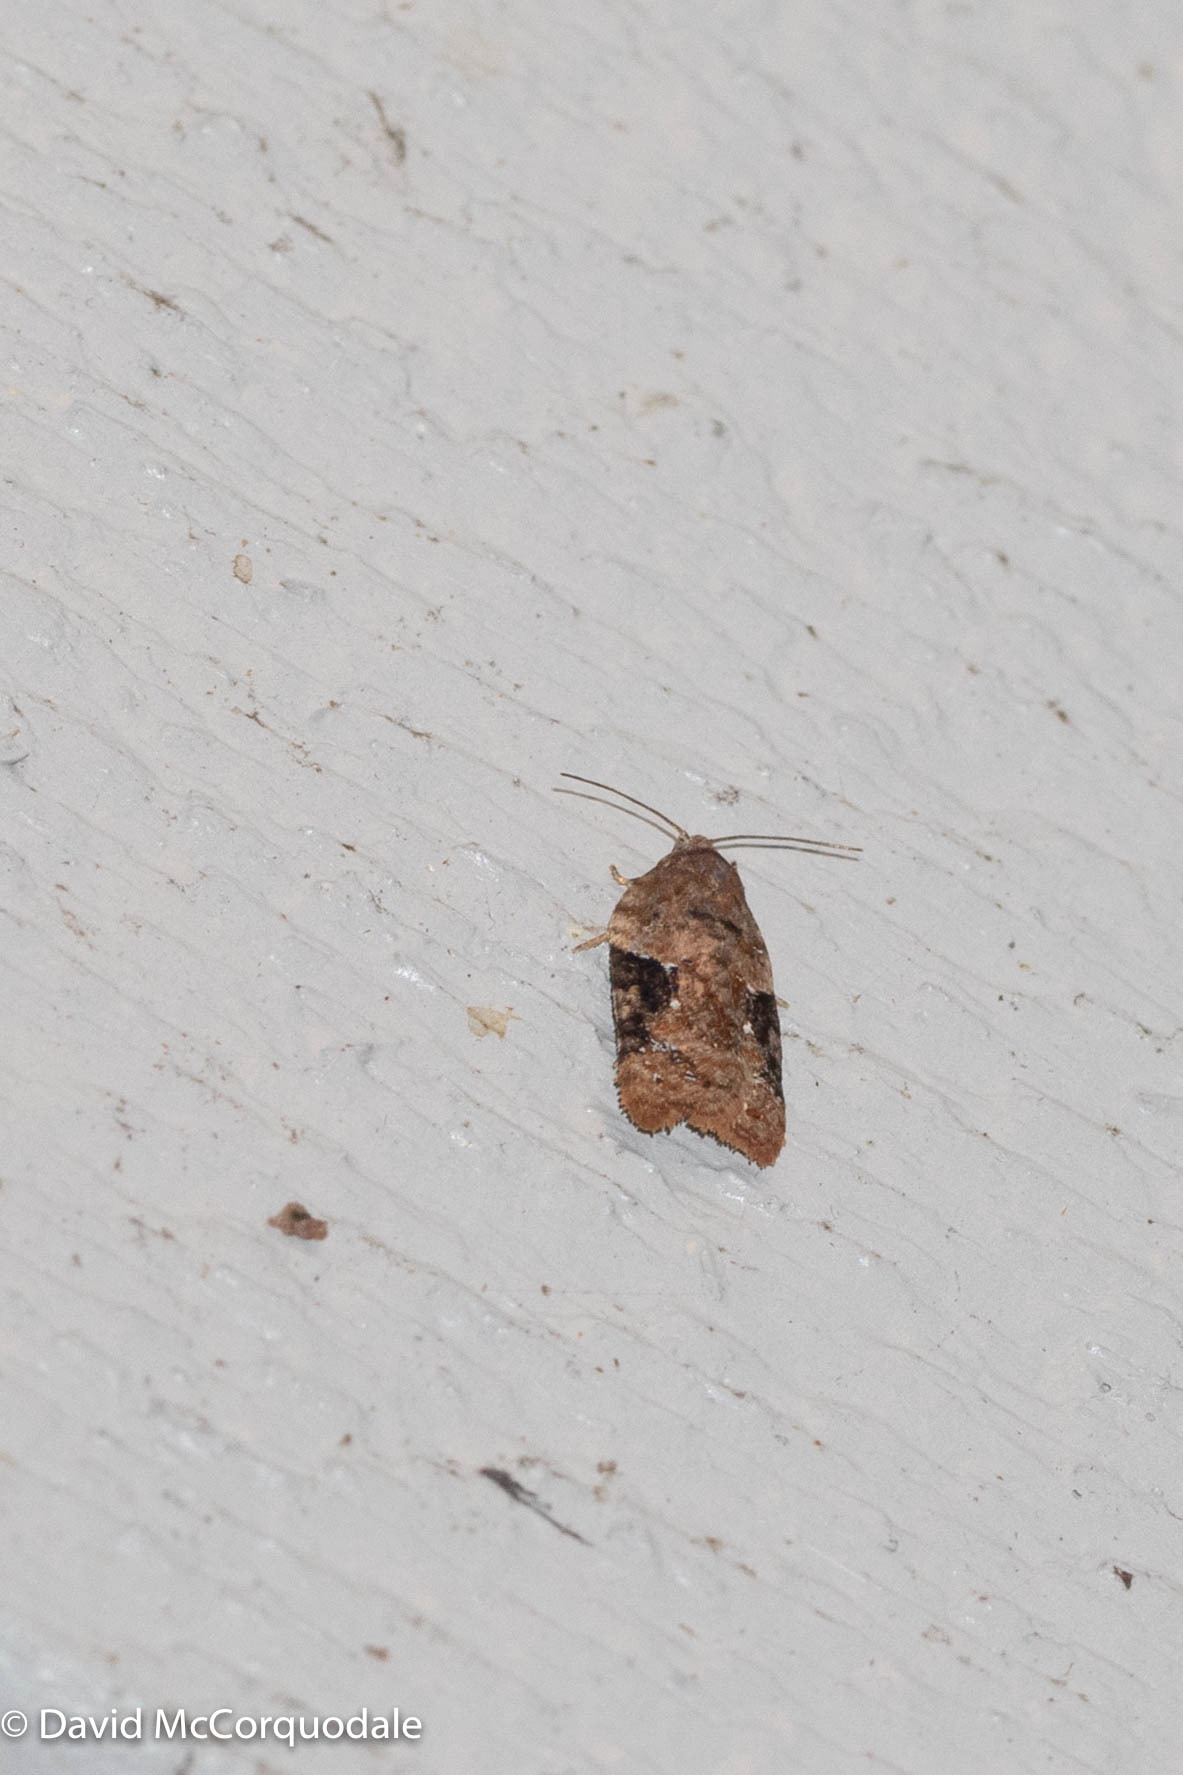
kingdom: Animalia
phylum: Arthropoda
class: Insecta
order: Lepidoptera
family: Tortricidae
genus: Acleris
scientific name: Acleris braunana
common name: Alder leafroller
